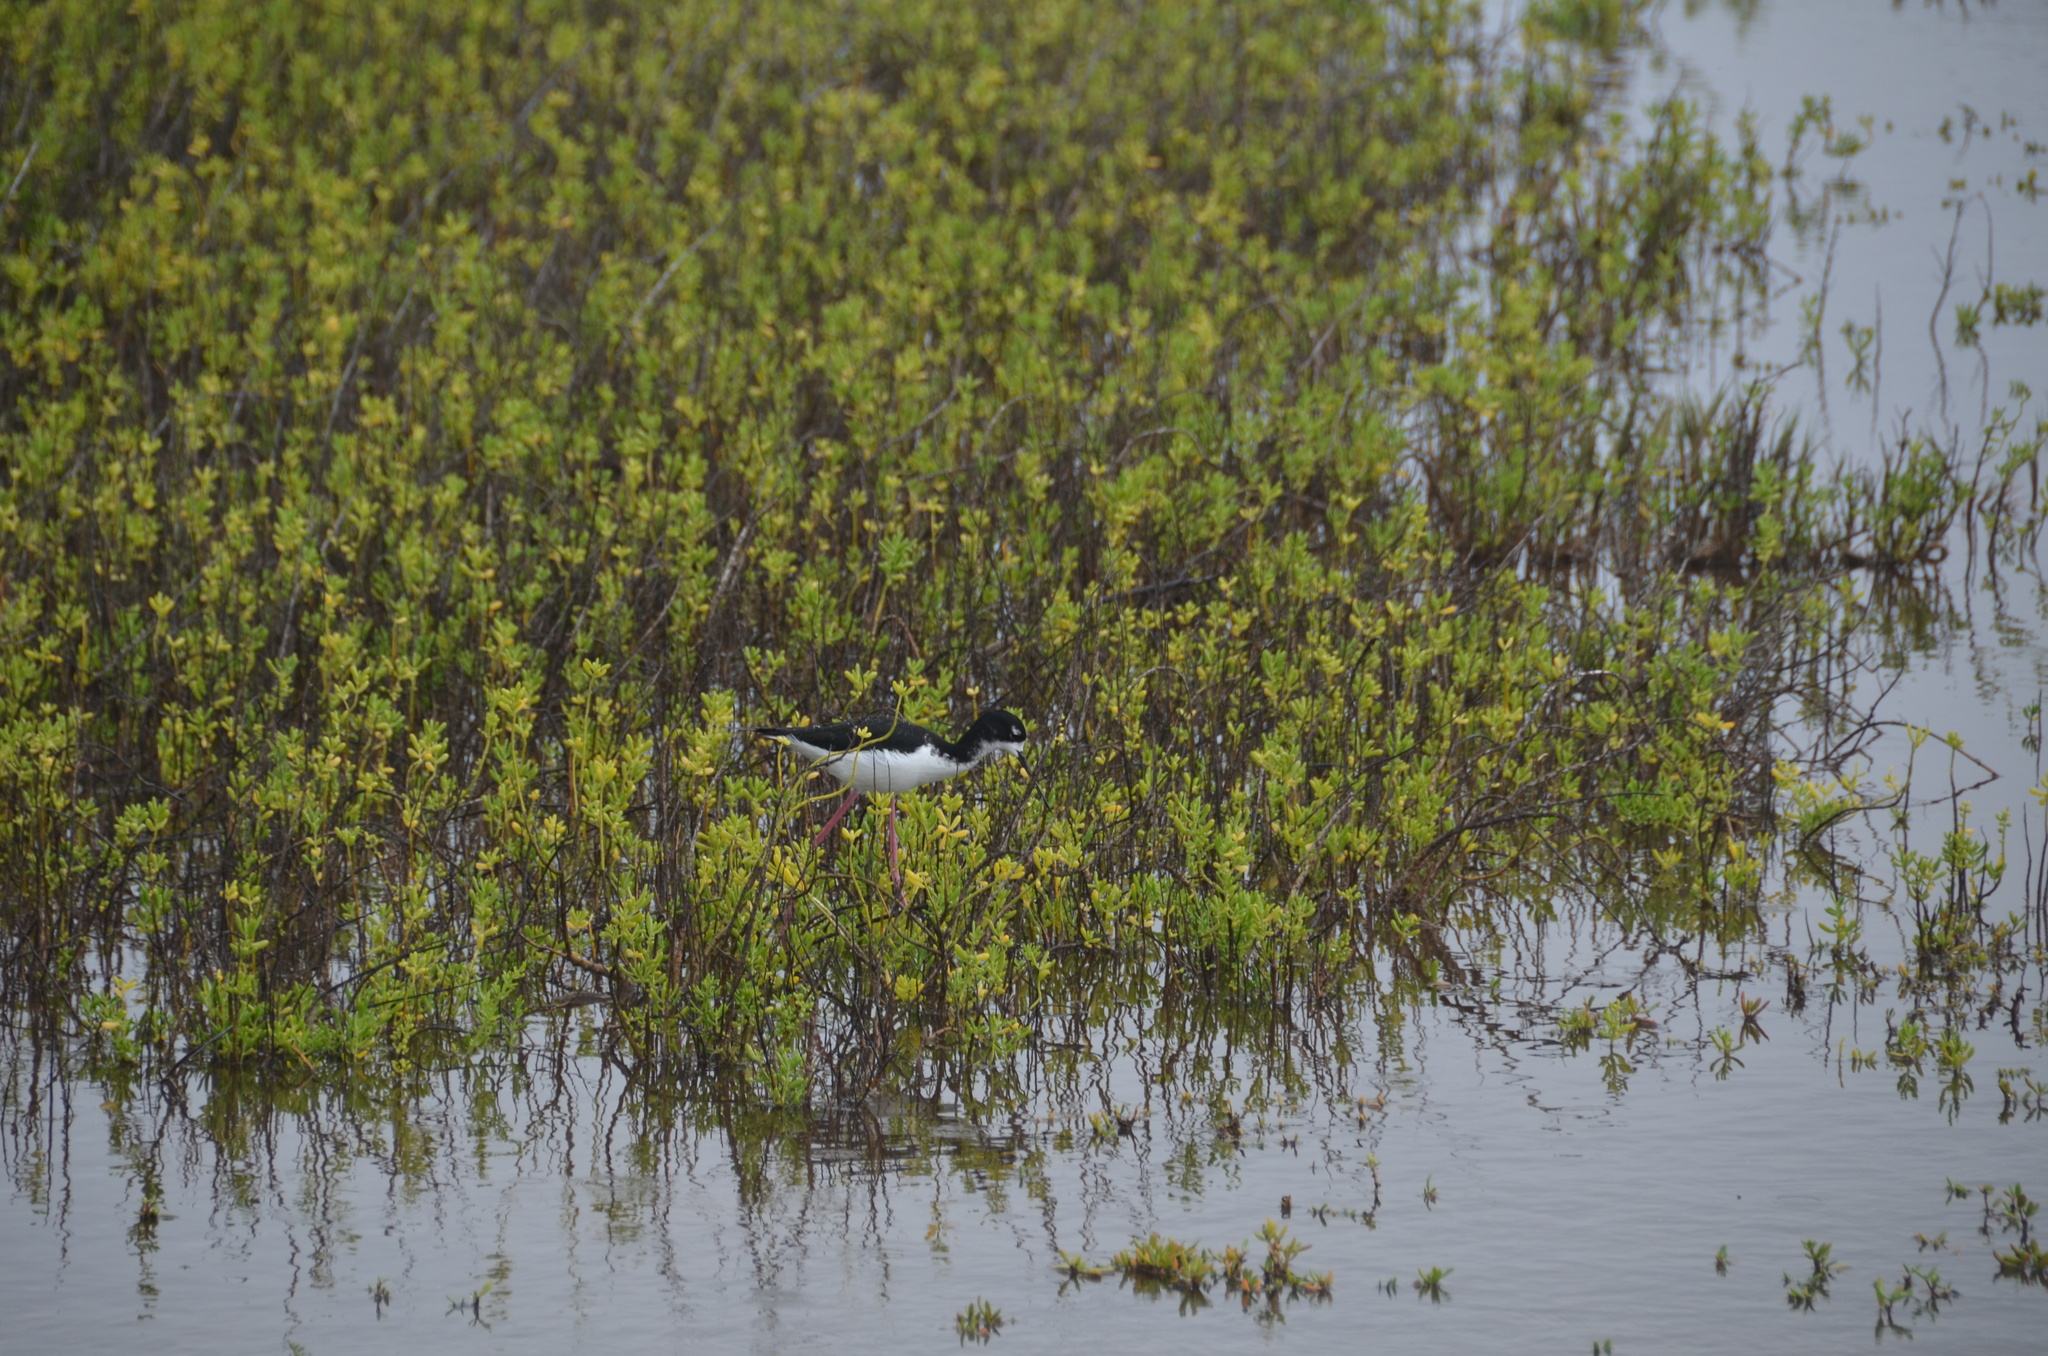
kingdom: Animalia
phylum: Chordata
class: Aves
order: Charadriiformes
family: Recurvirostridae
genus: Himantopus
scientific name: Himantopus mexicanus
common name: Black-necked stilt
